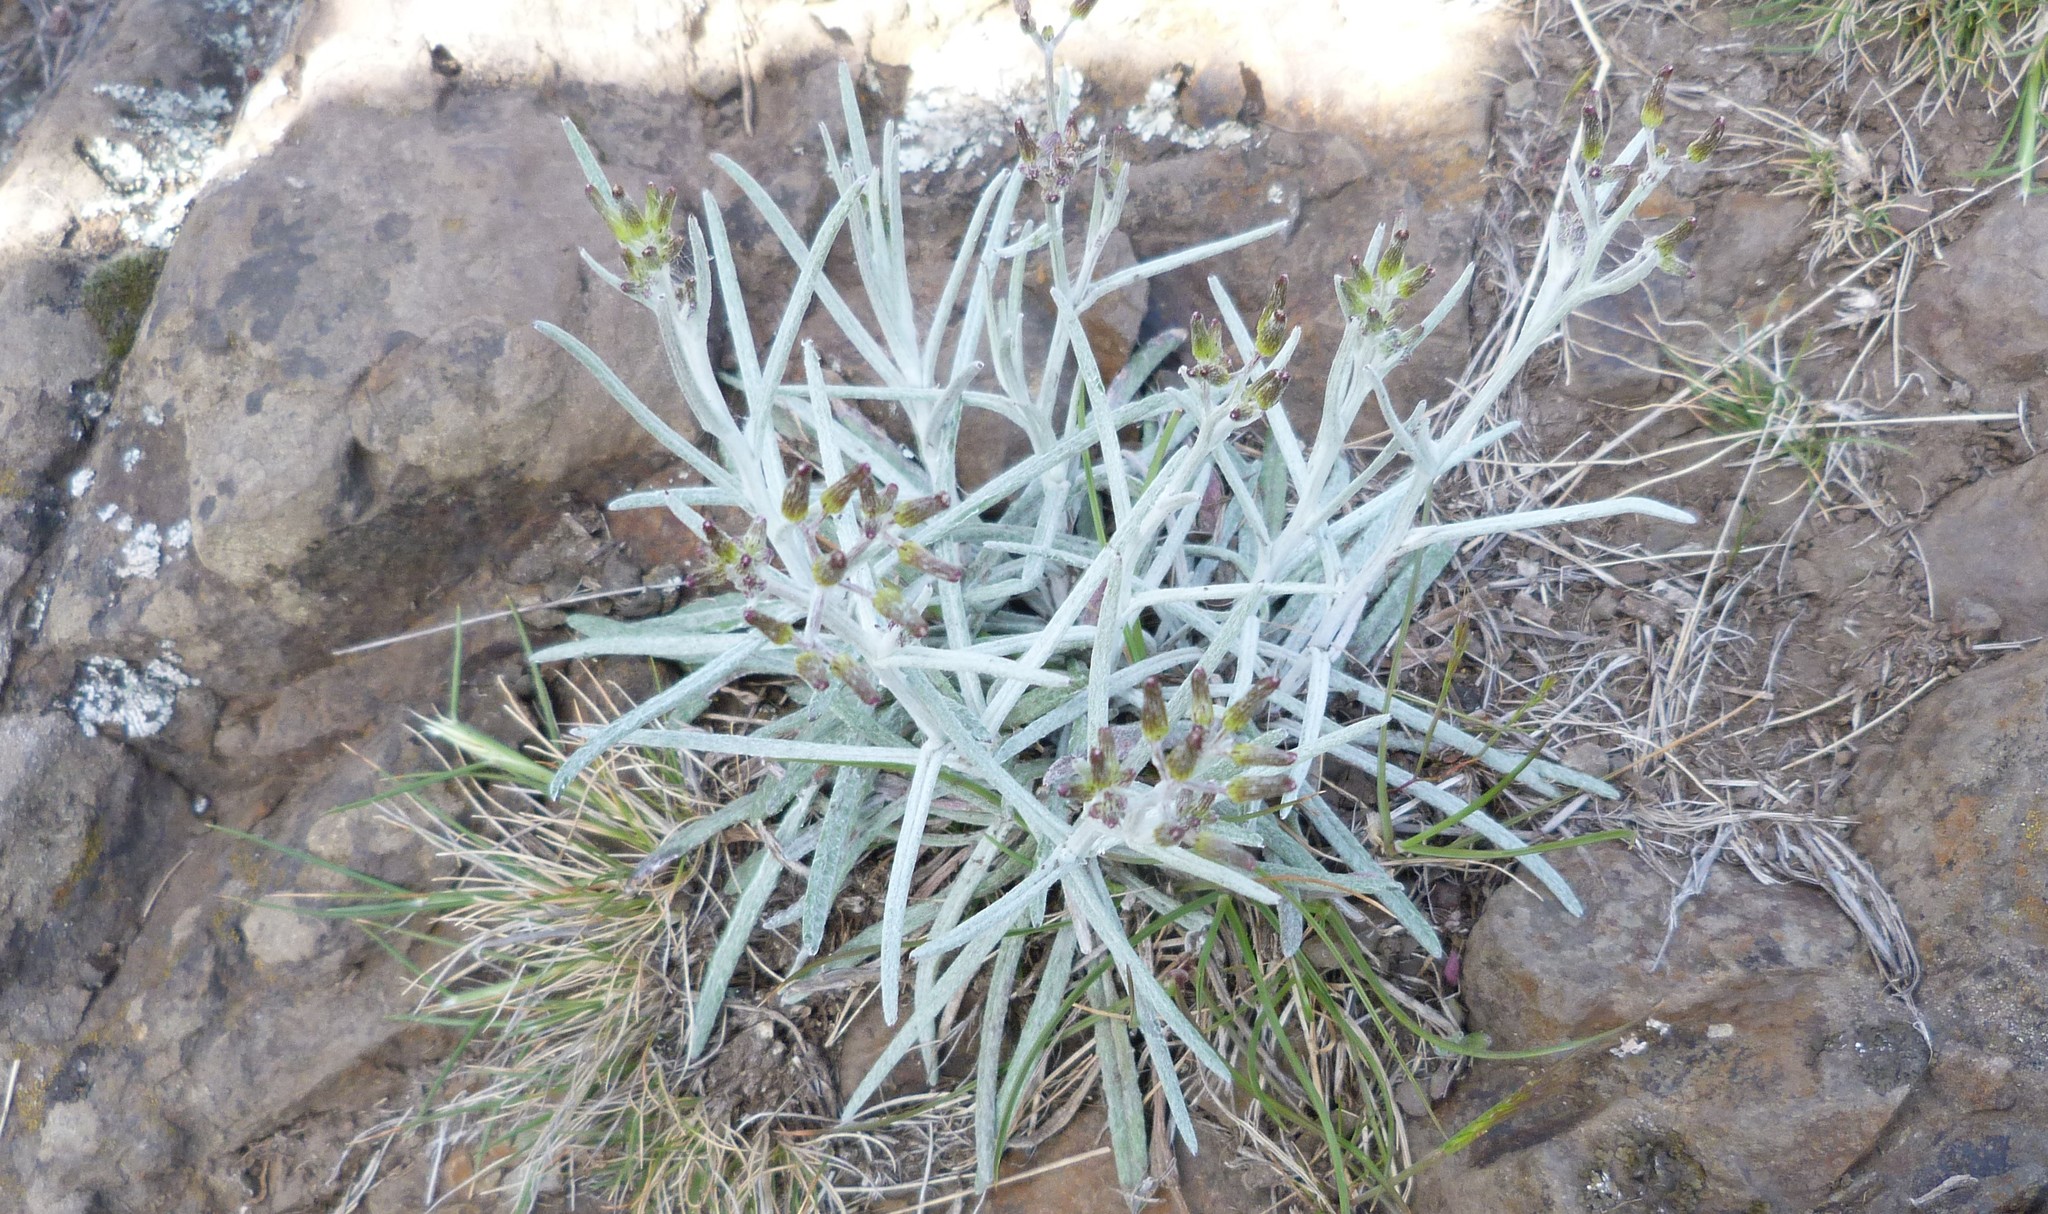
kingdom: Plantae
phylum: Tracheophyta
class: Magnoliopsida
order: Asterales
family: Asteraceae
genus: Senecio
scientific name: Senecio quadridentatus
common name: Cotton fireweed
